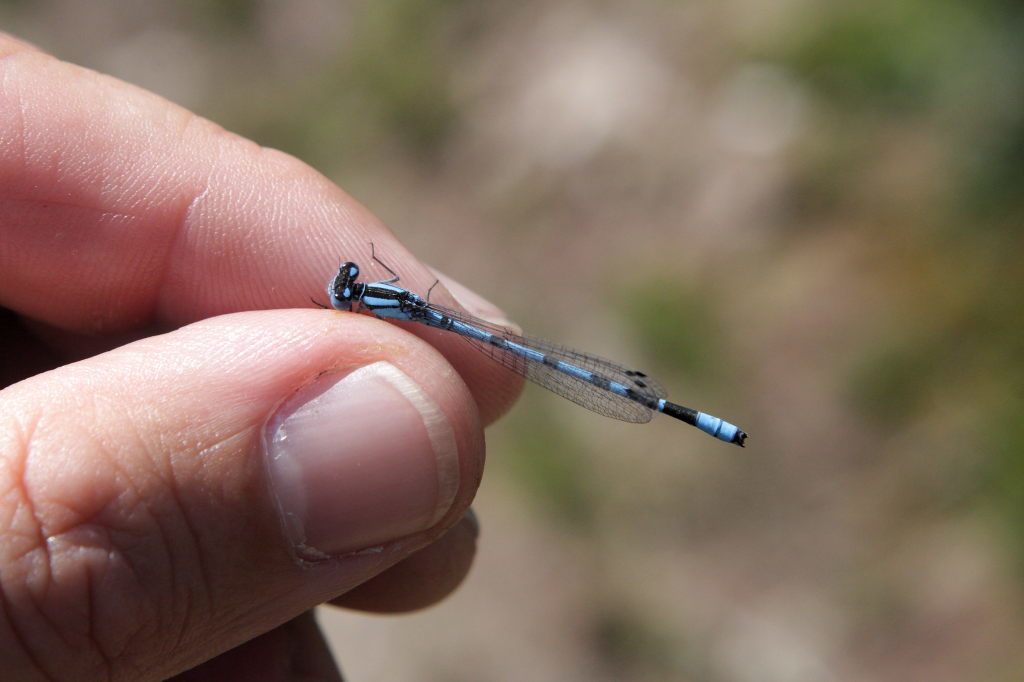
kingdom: Animalia
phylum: Arthropoda
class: Insecta
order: Odonata
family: Coenagrionidae
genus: Enallagma
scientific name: Enallagma cyathigerum
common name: Common blue damselfly
